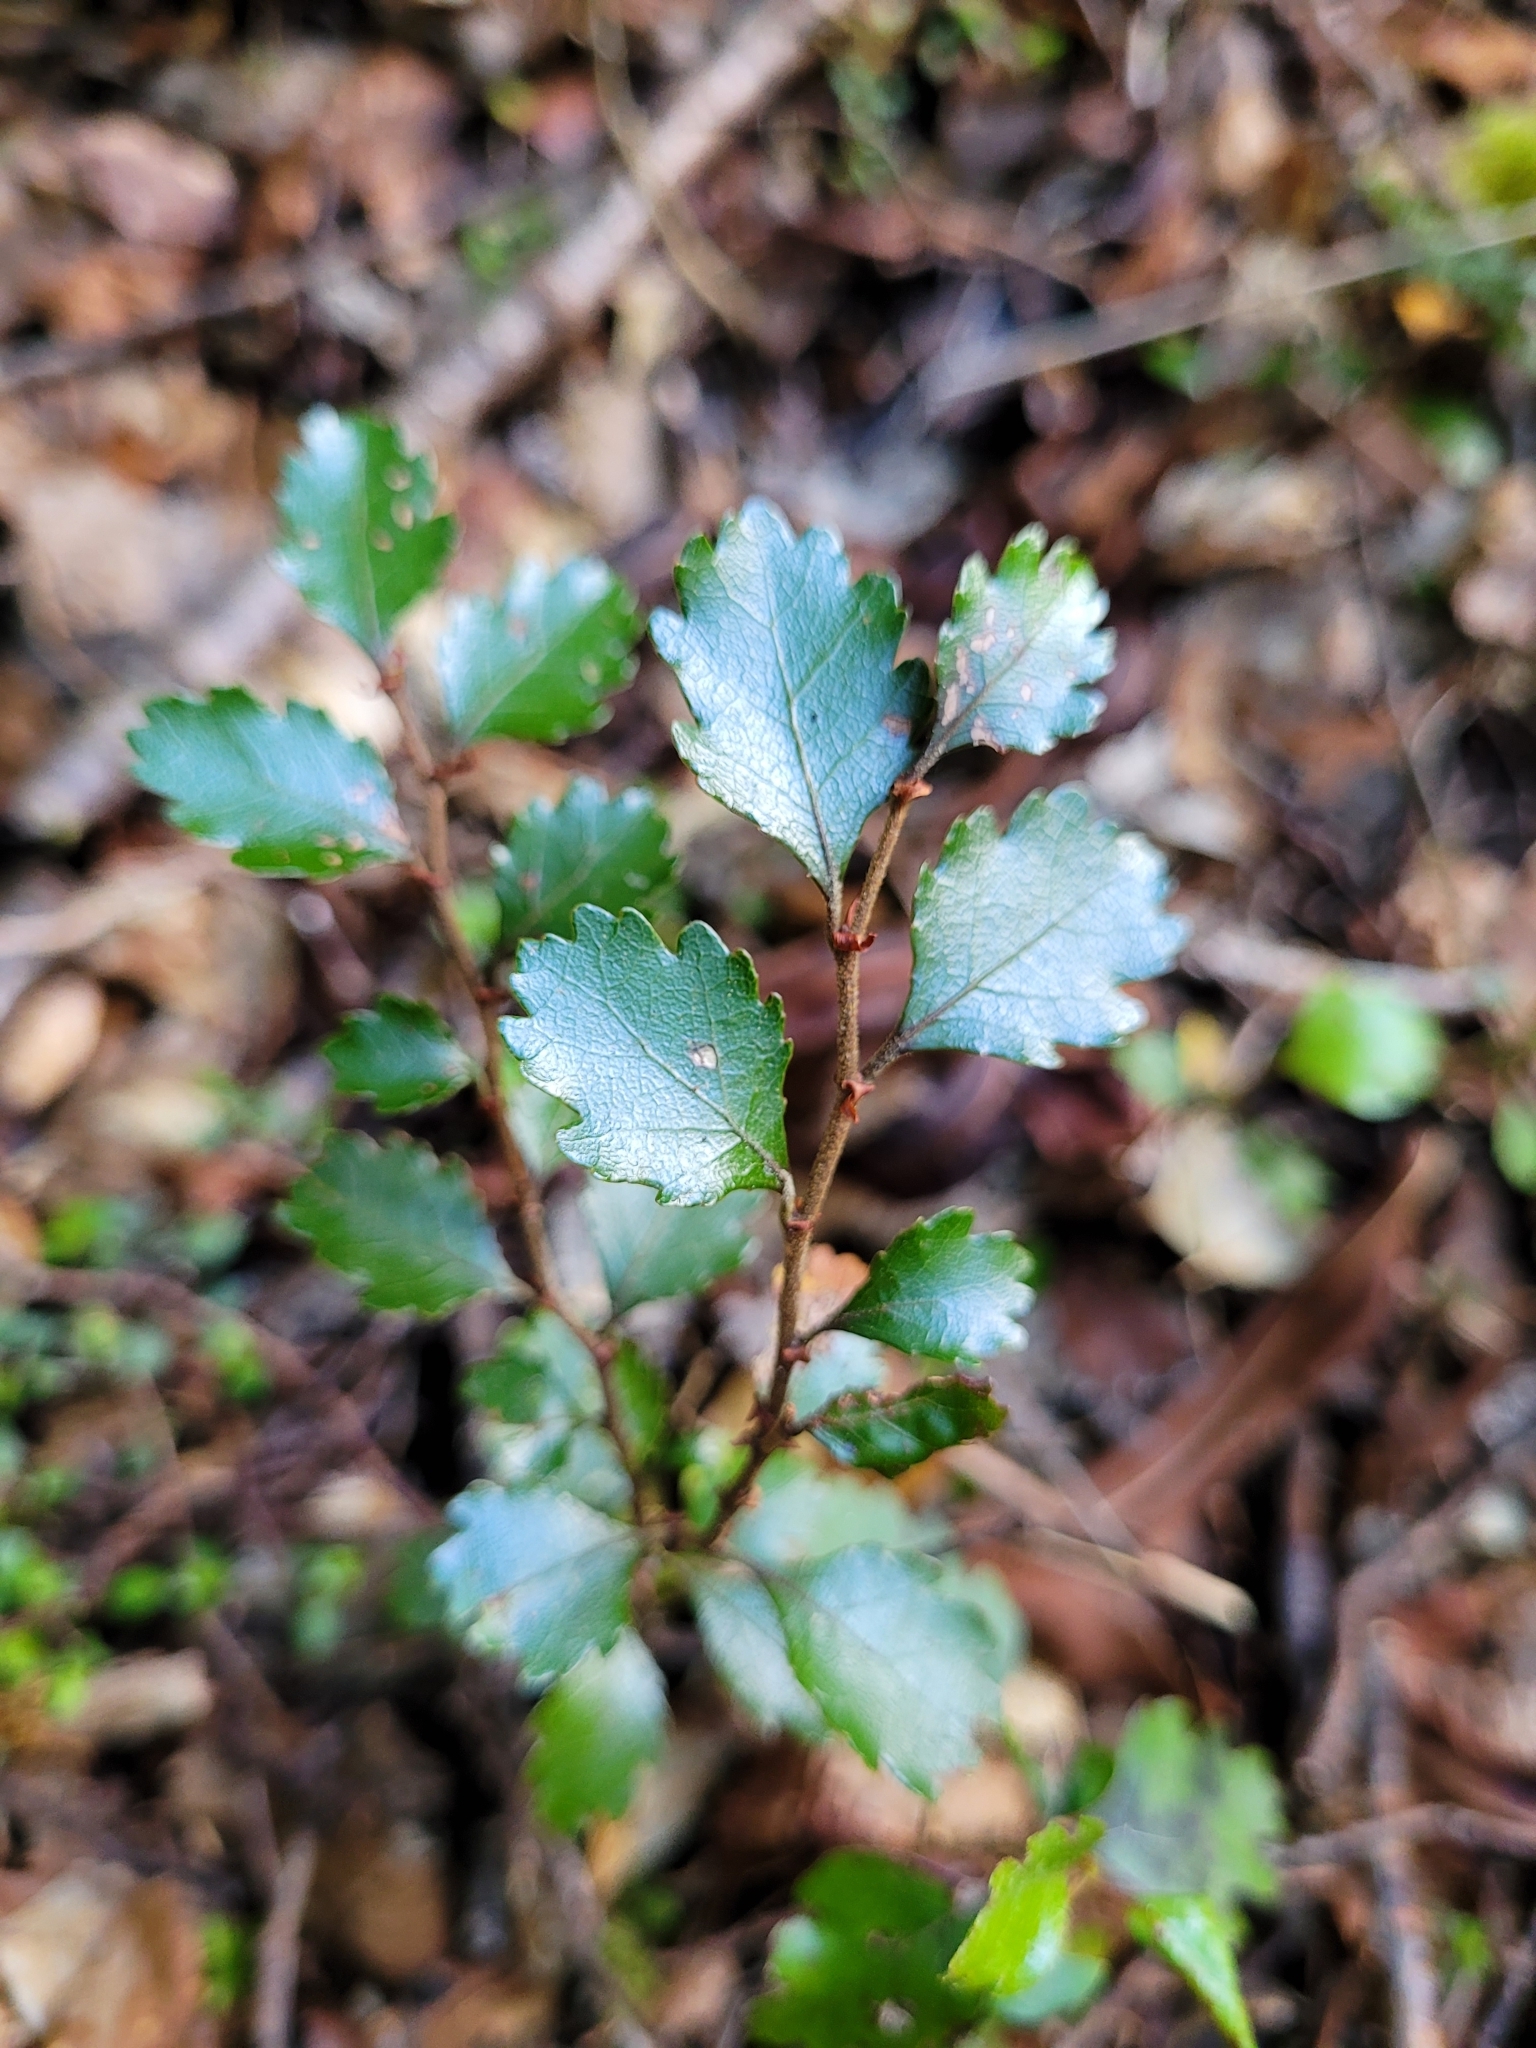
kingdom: Plantae
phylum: Tracheophyta
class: Magnoliopsida
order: Fagales
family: Nothofagaceae
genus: Nothofagus
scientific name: Nothofagus menziesii
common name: Silver beech
